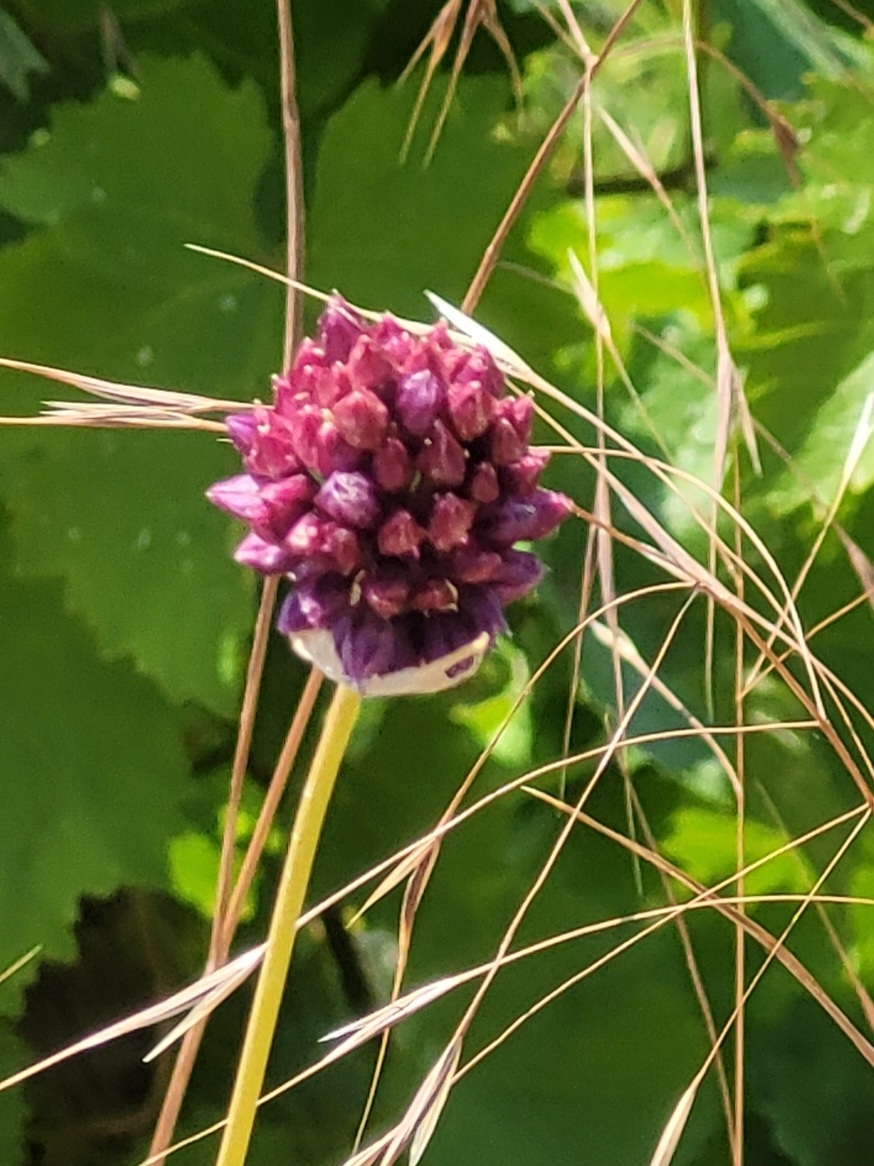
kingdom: Plantae
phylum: Tracheophyta
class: Liliopsida
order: Asparagales
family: Amaryllidaceae
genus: Allium
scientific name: Allium rotundum
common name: Sand leek
